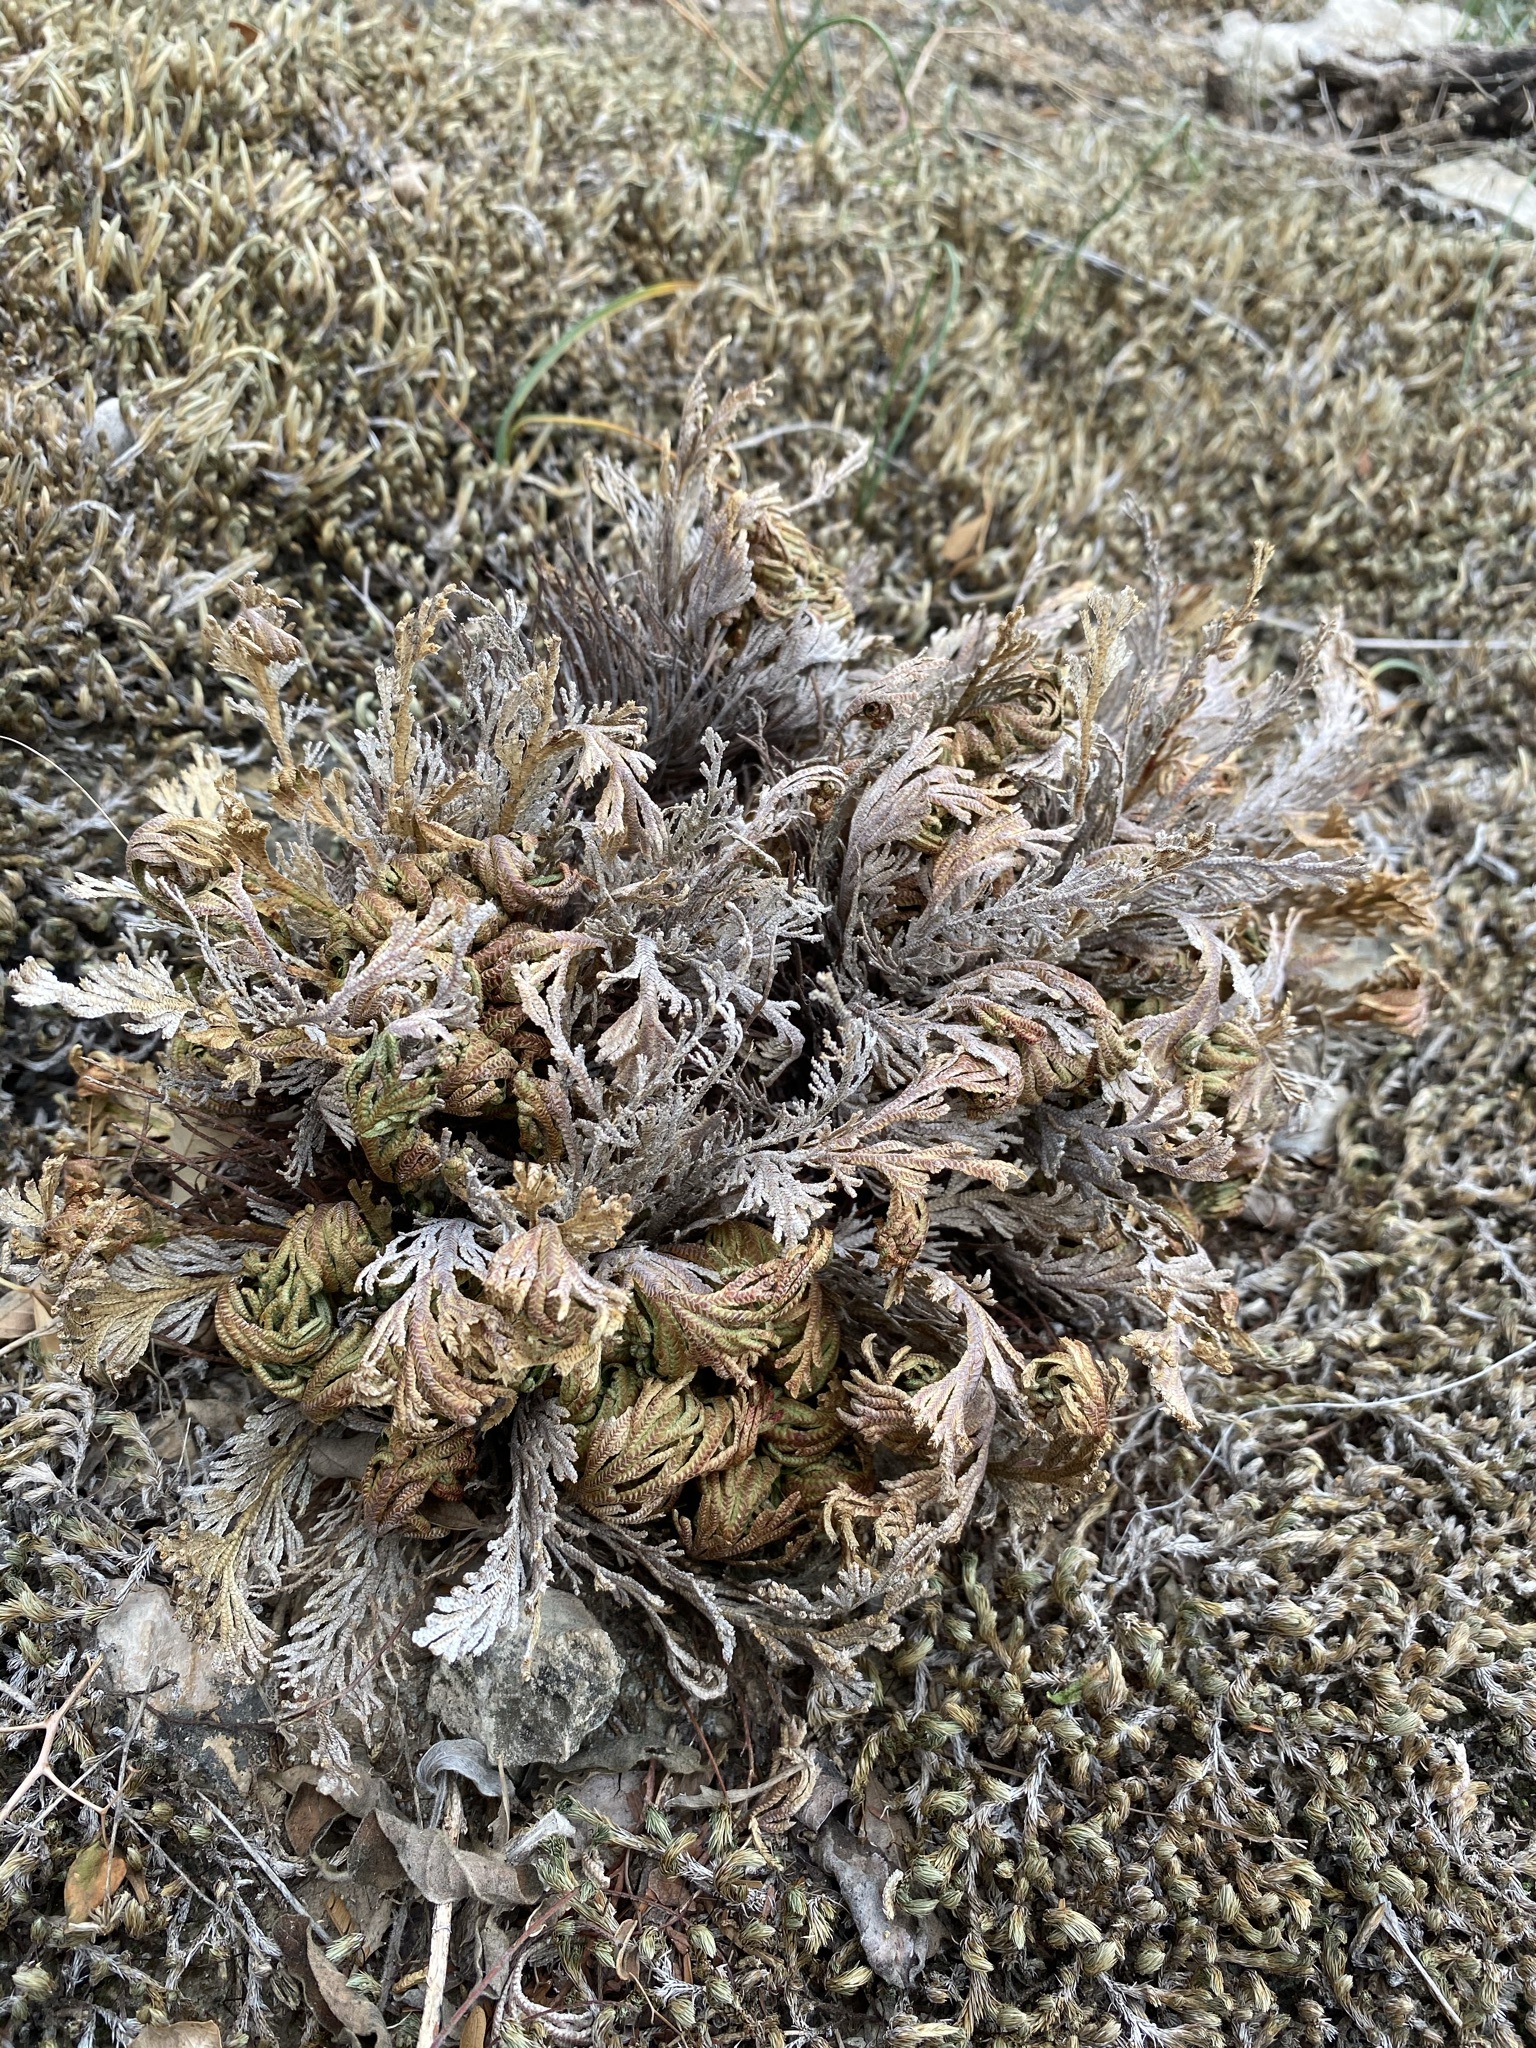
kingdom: Plantae
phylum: Tracheophyta
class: Lycopodiopsida
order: Selaginellales
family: Selaginellaceae
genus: Selaginella
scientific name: Selaginella lepidophylla
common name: Rose-of-jericho
